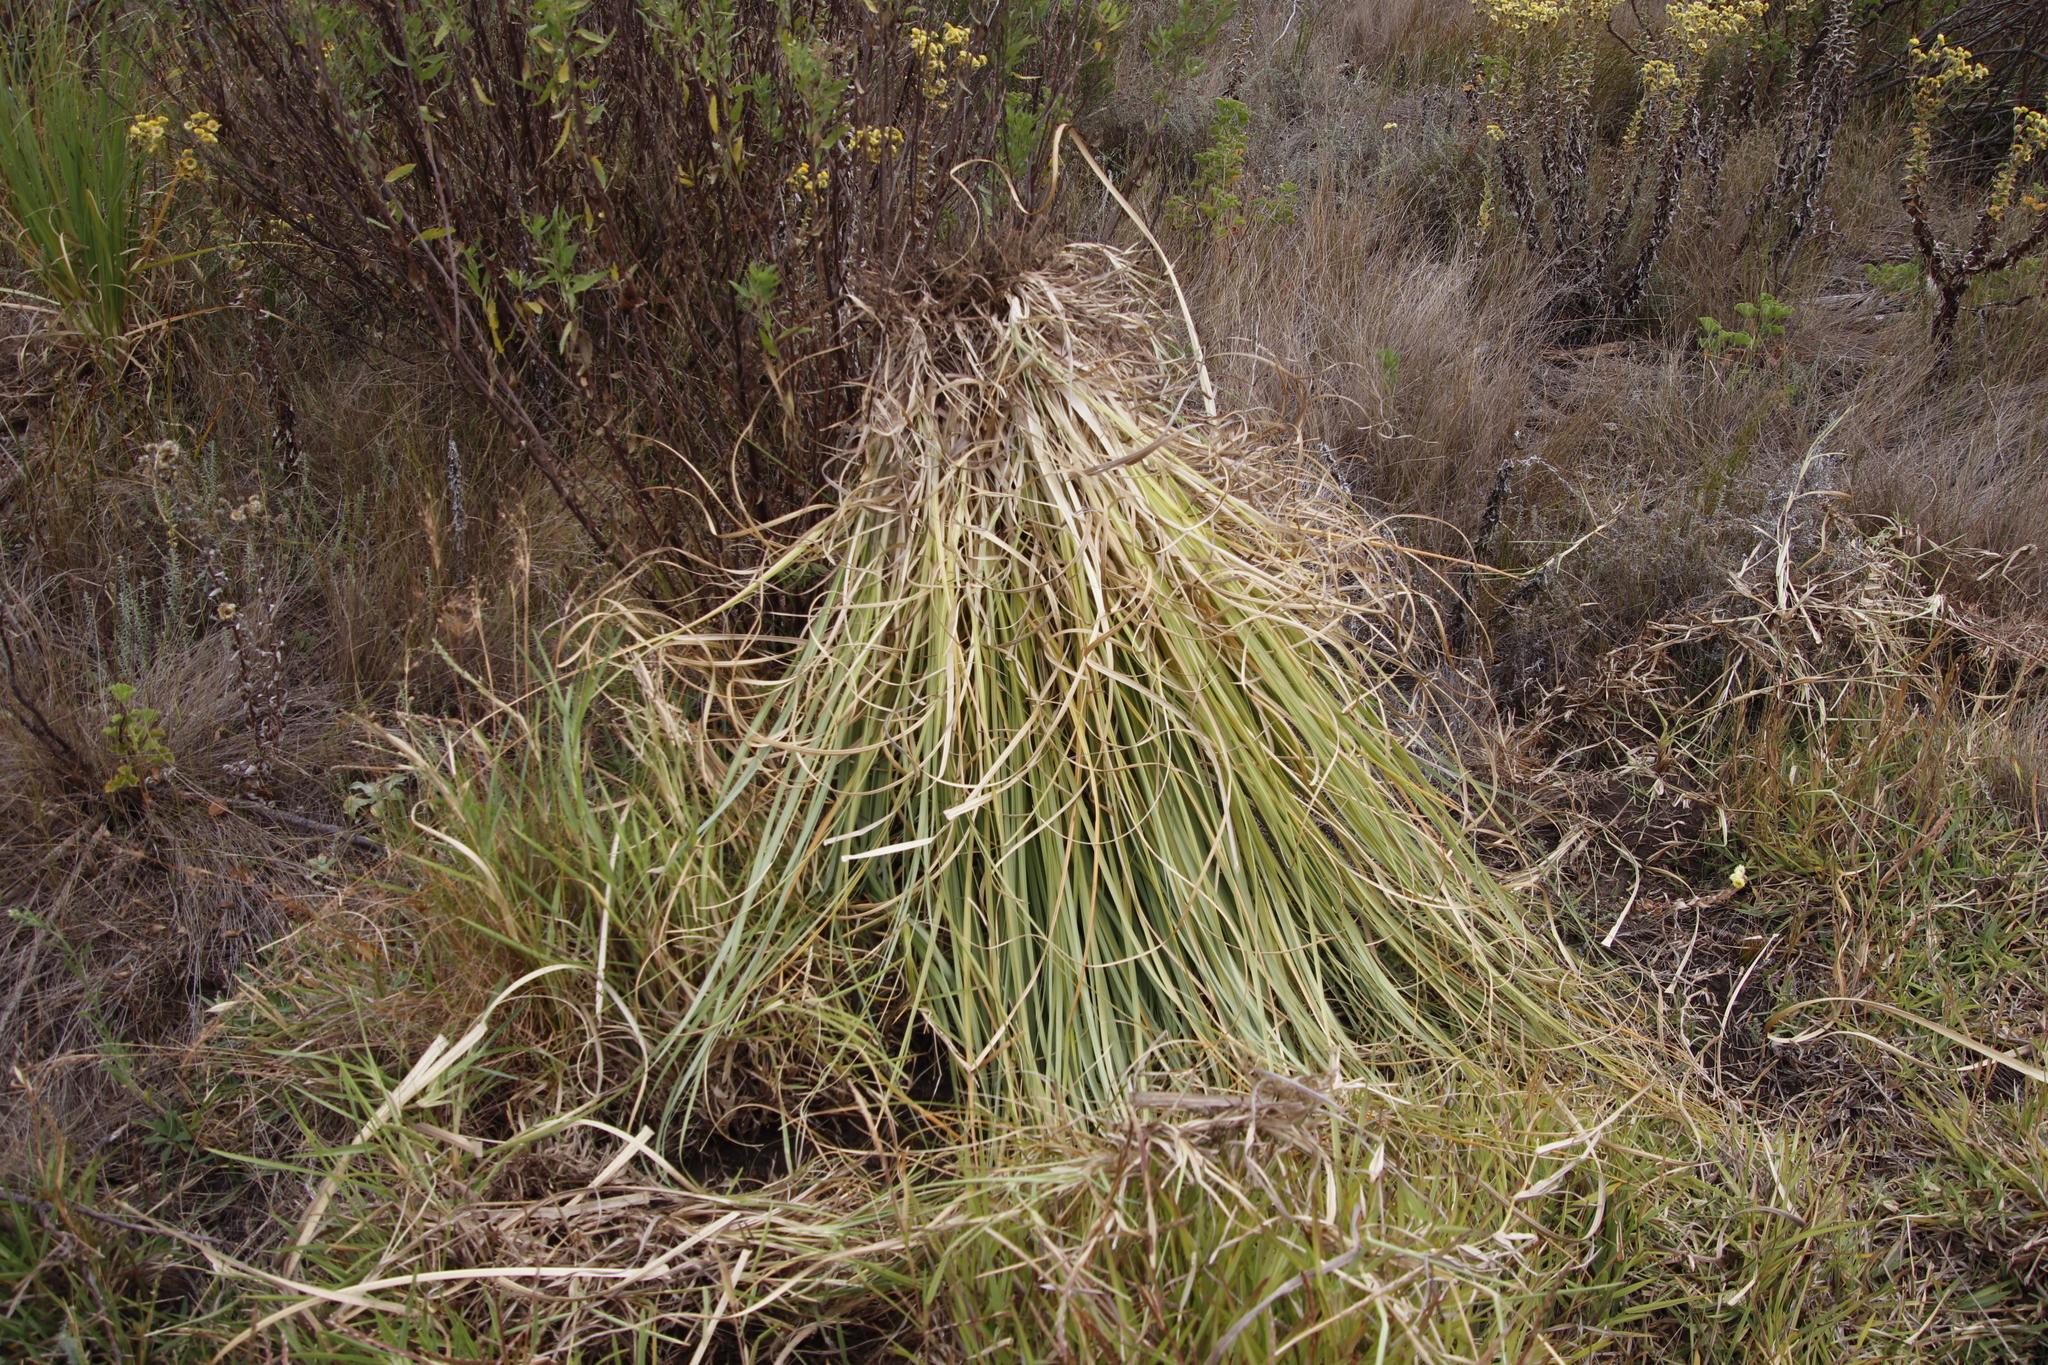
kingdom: Plantae
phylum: Tracheophyta
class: Liliopsida
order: Poales
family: Poaceae
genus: Cortaderia
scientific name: Cortaderia selloana
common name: Uruguayan pampas grass
